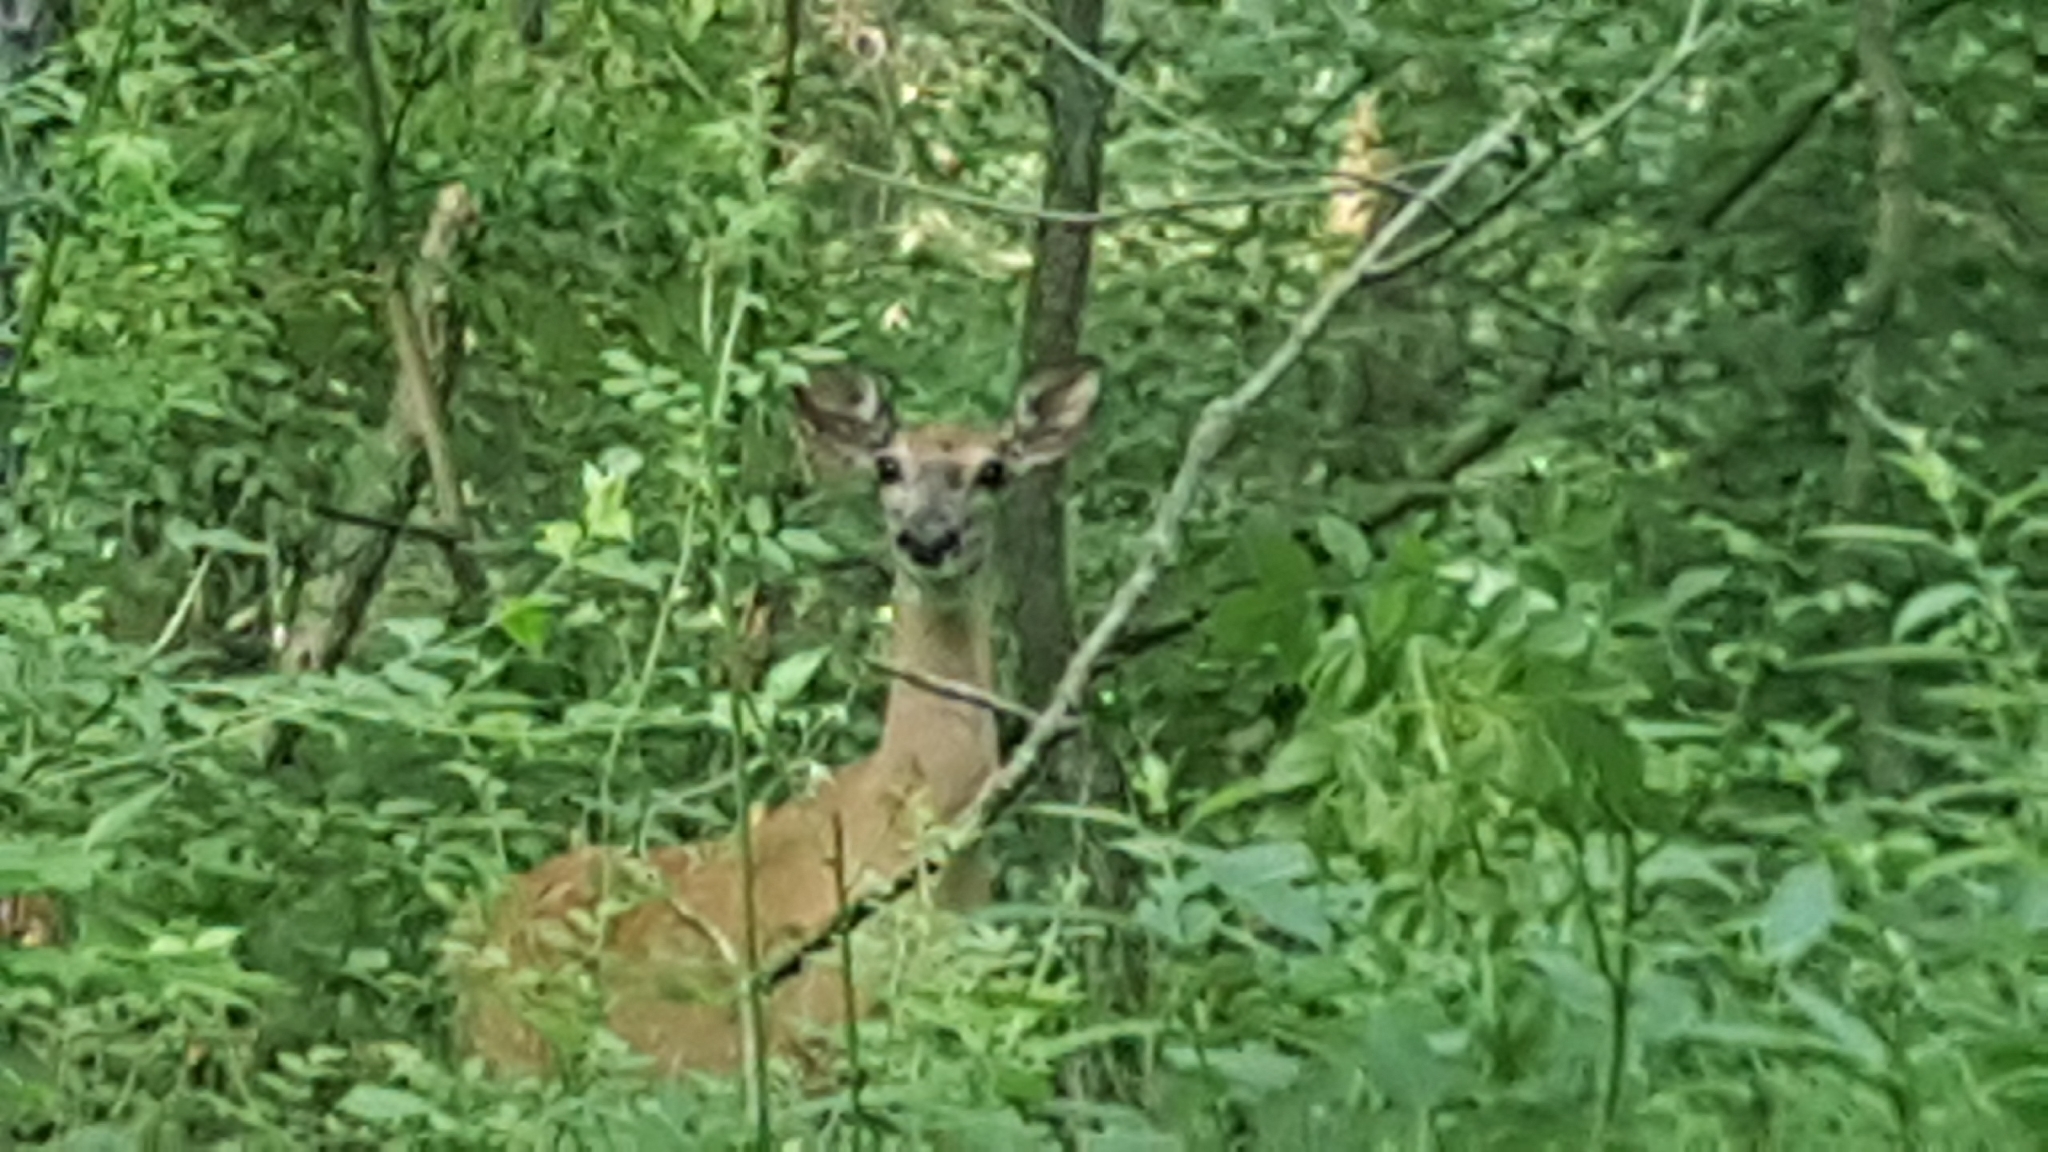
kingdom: Animalia
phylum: Chordata
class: Mammalia
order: Artiodactyla
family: Cervidae
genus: Odocoileus
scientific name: Odocoileus virginianus
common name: White-tailed deer
